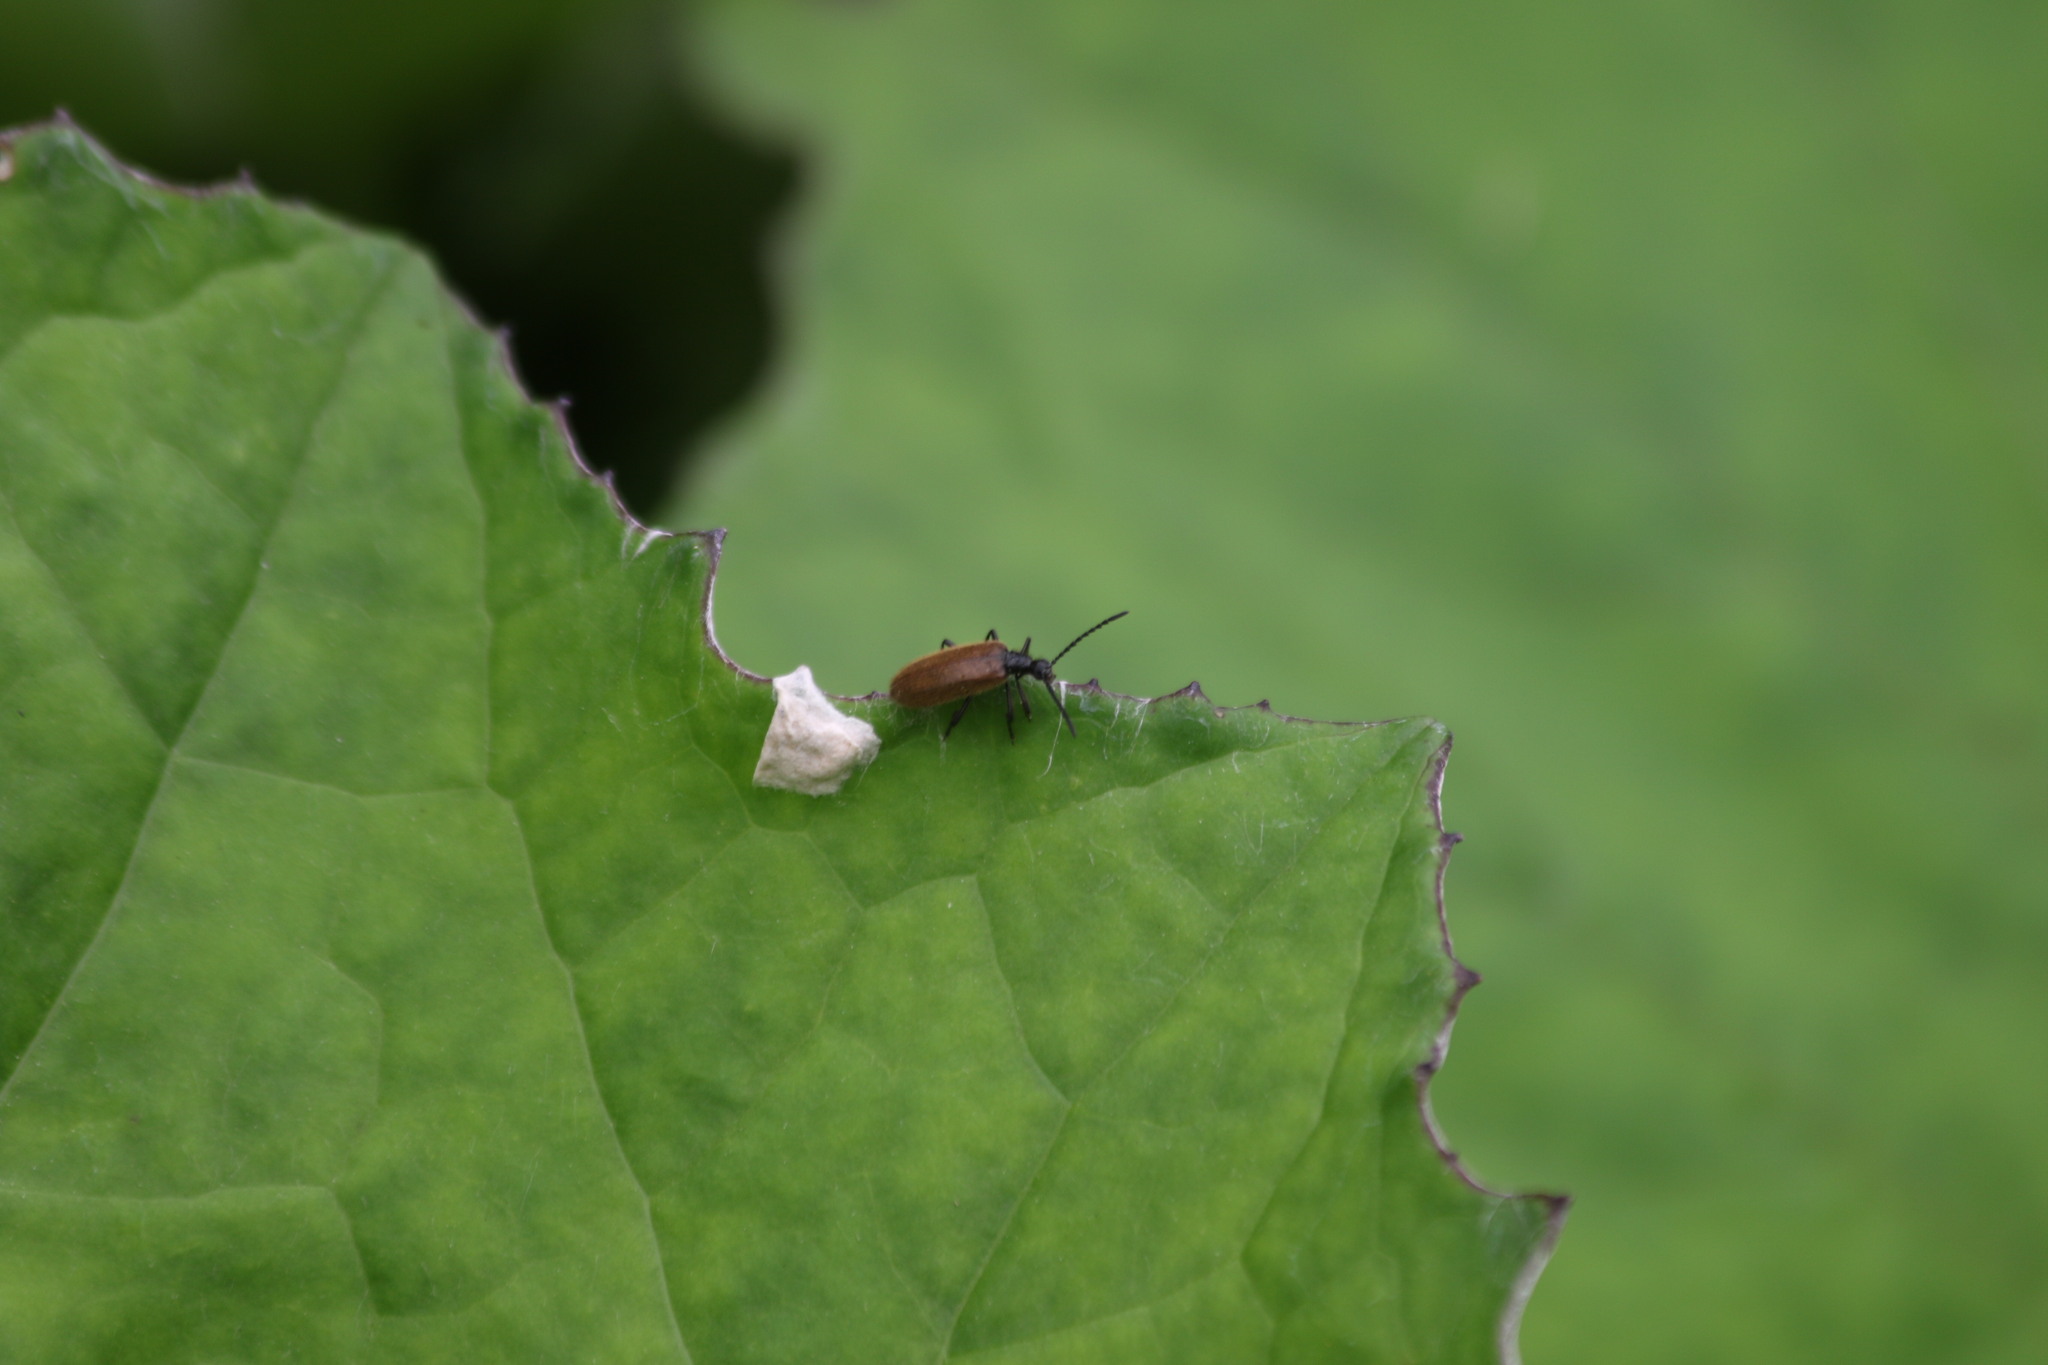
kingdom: Animalia
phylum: Arthropoda
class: Insecta
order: Coleoptera
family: Tenebrionidae
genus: Lagria
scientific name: Lagria hirta
